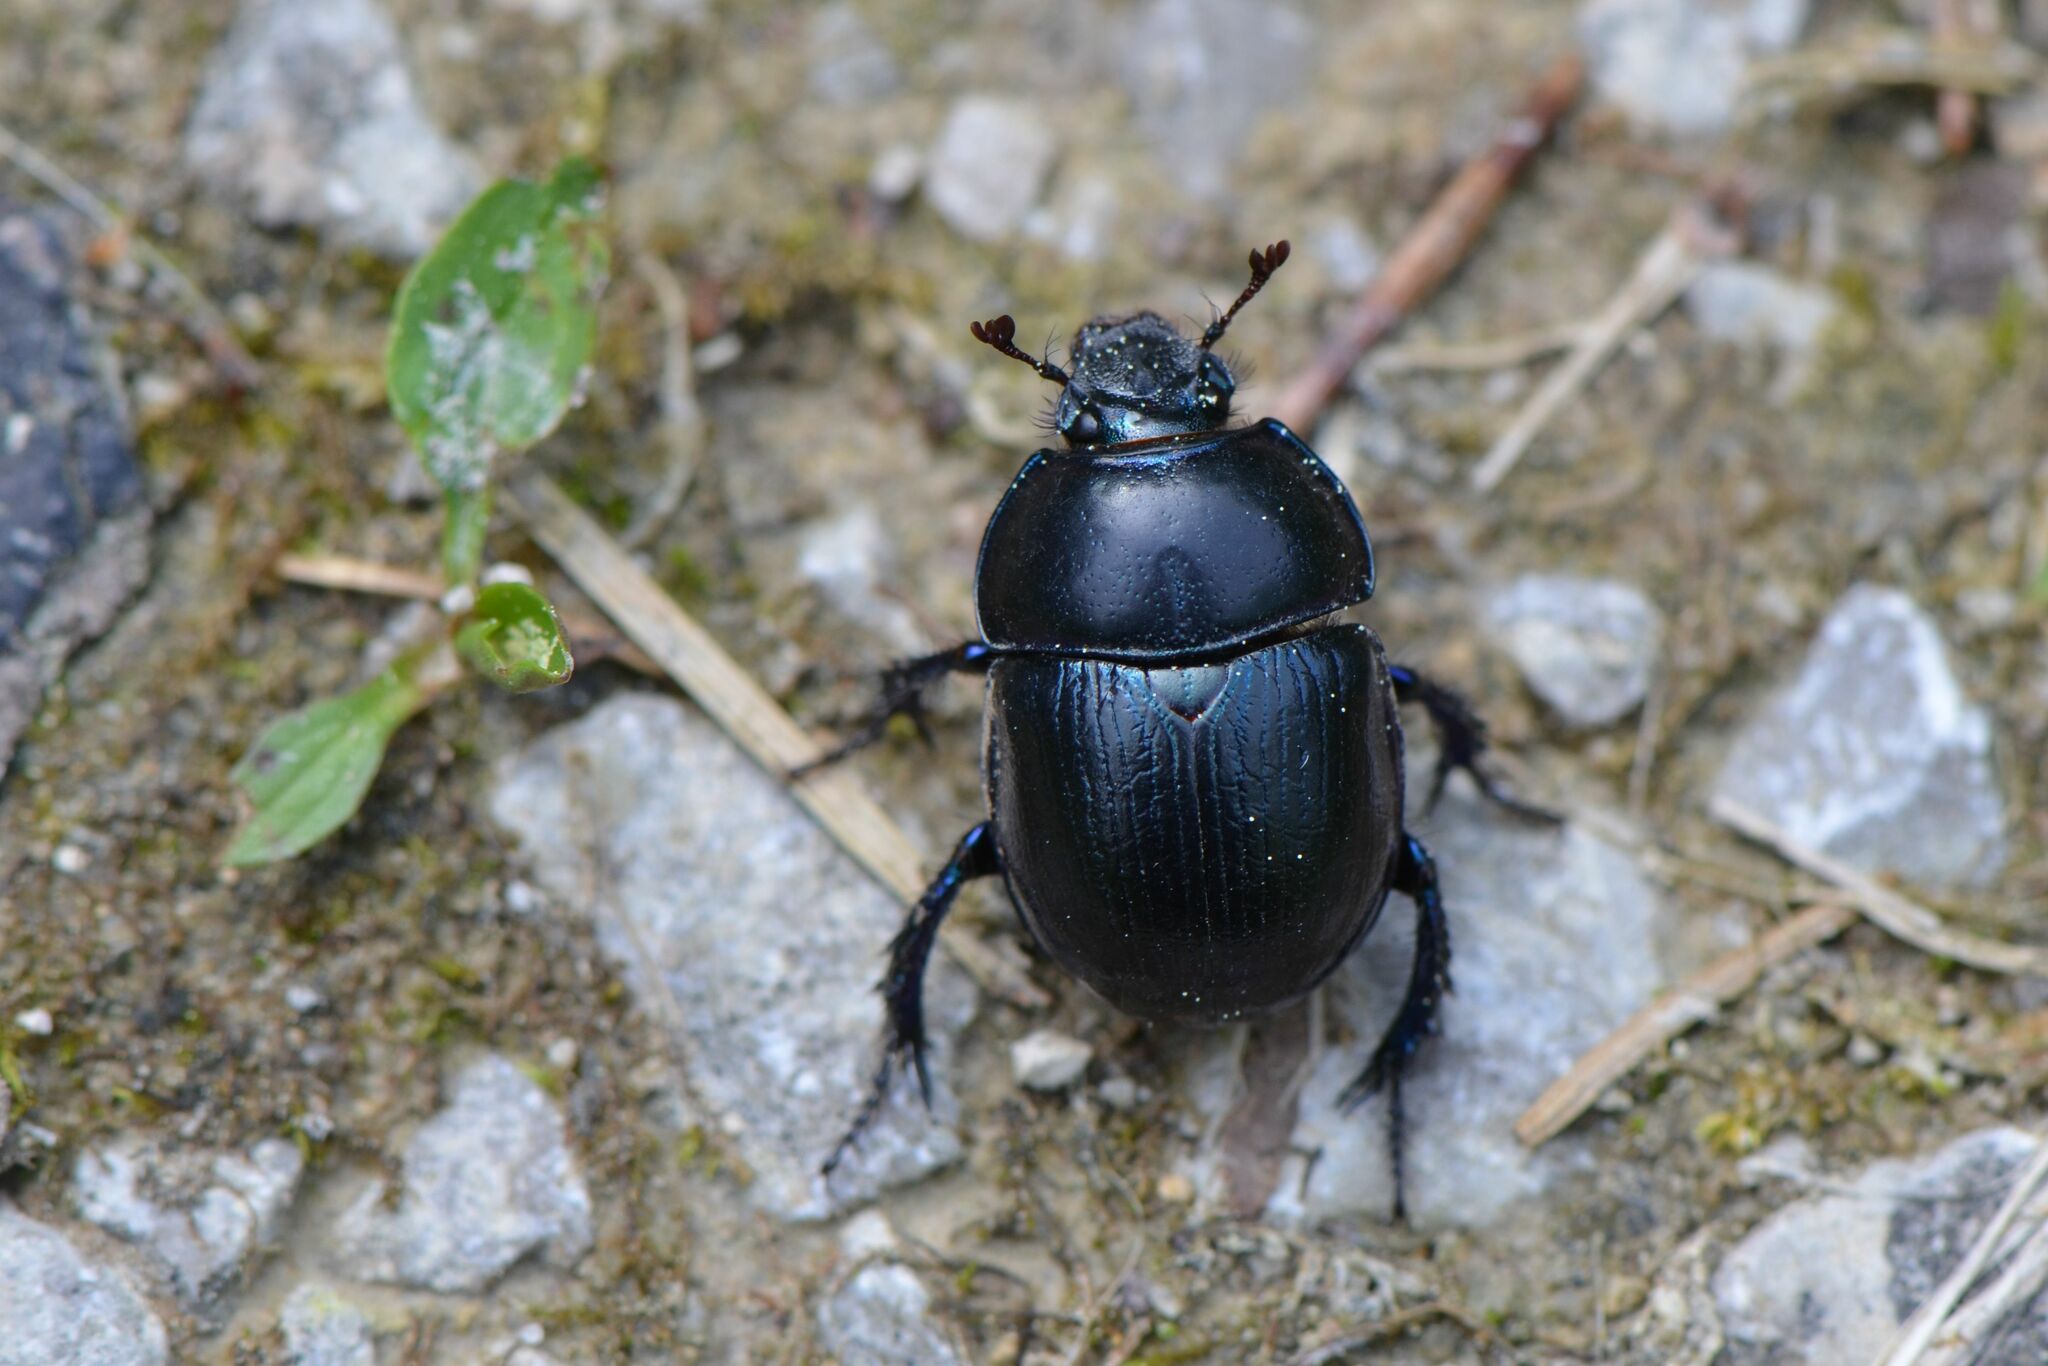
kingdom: Animalia
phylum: Arthropoda
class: Insecta
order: Coleoptera
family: Geotrupidae
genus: Anoplotrupes
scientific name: Anoplotrupes stercorosus
